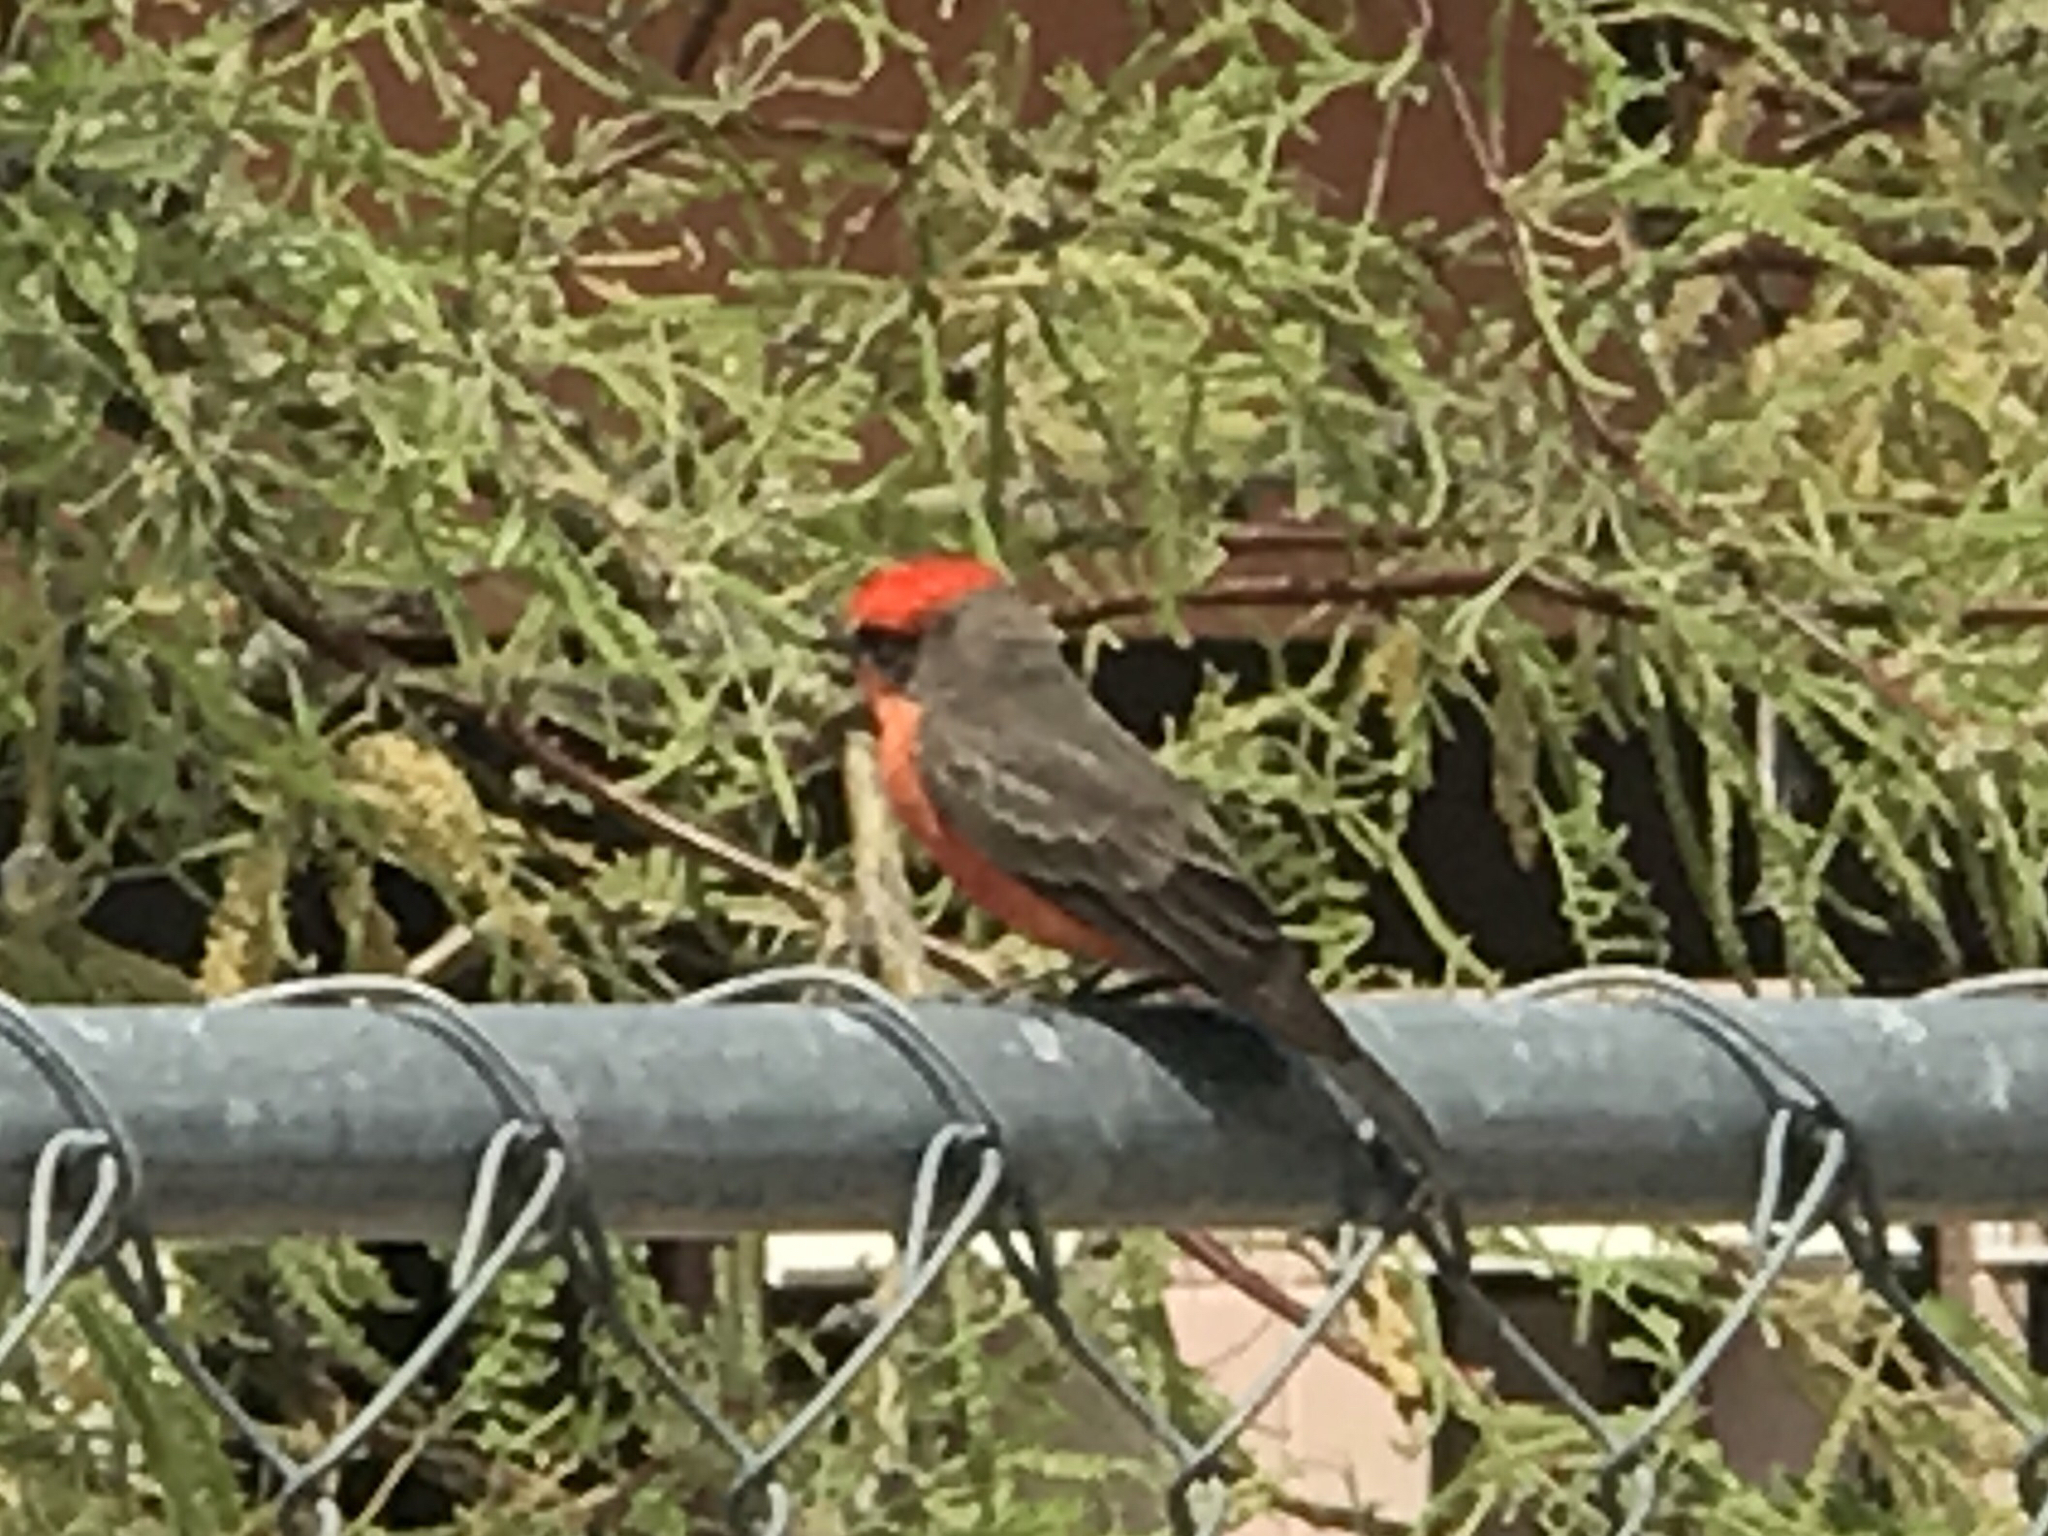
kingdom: Animalia
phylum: Chordata
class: Aves
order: Passeriformes
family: Tyrannidae
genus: Pyrocephalus
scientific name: Pyrocephalus rubinus
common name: Vermilion flycatcher
